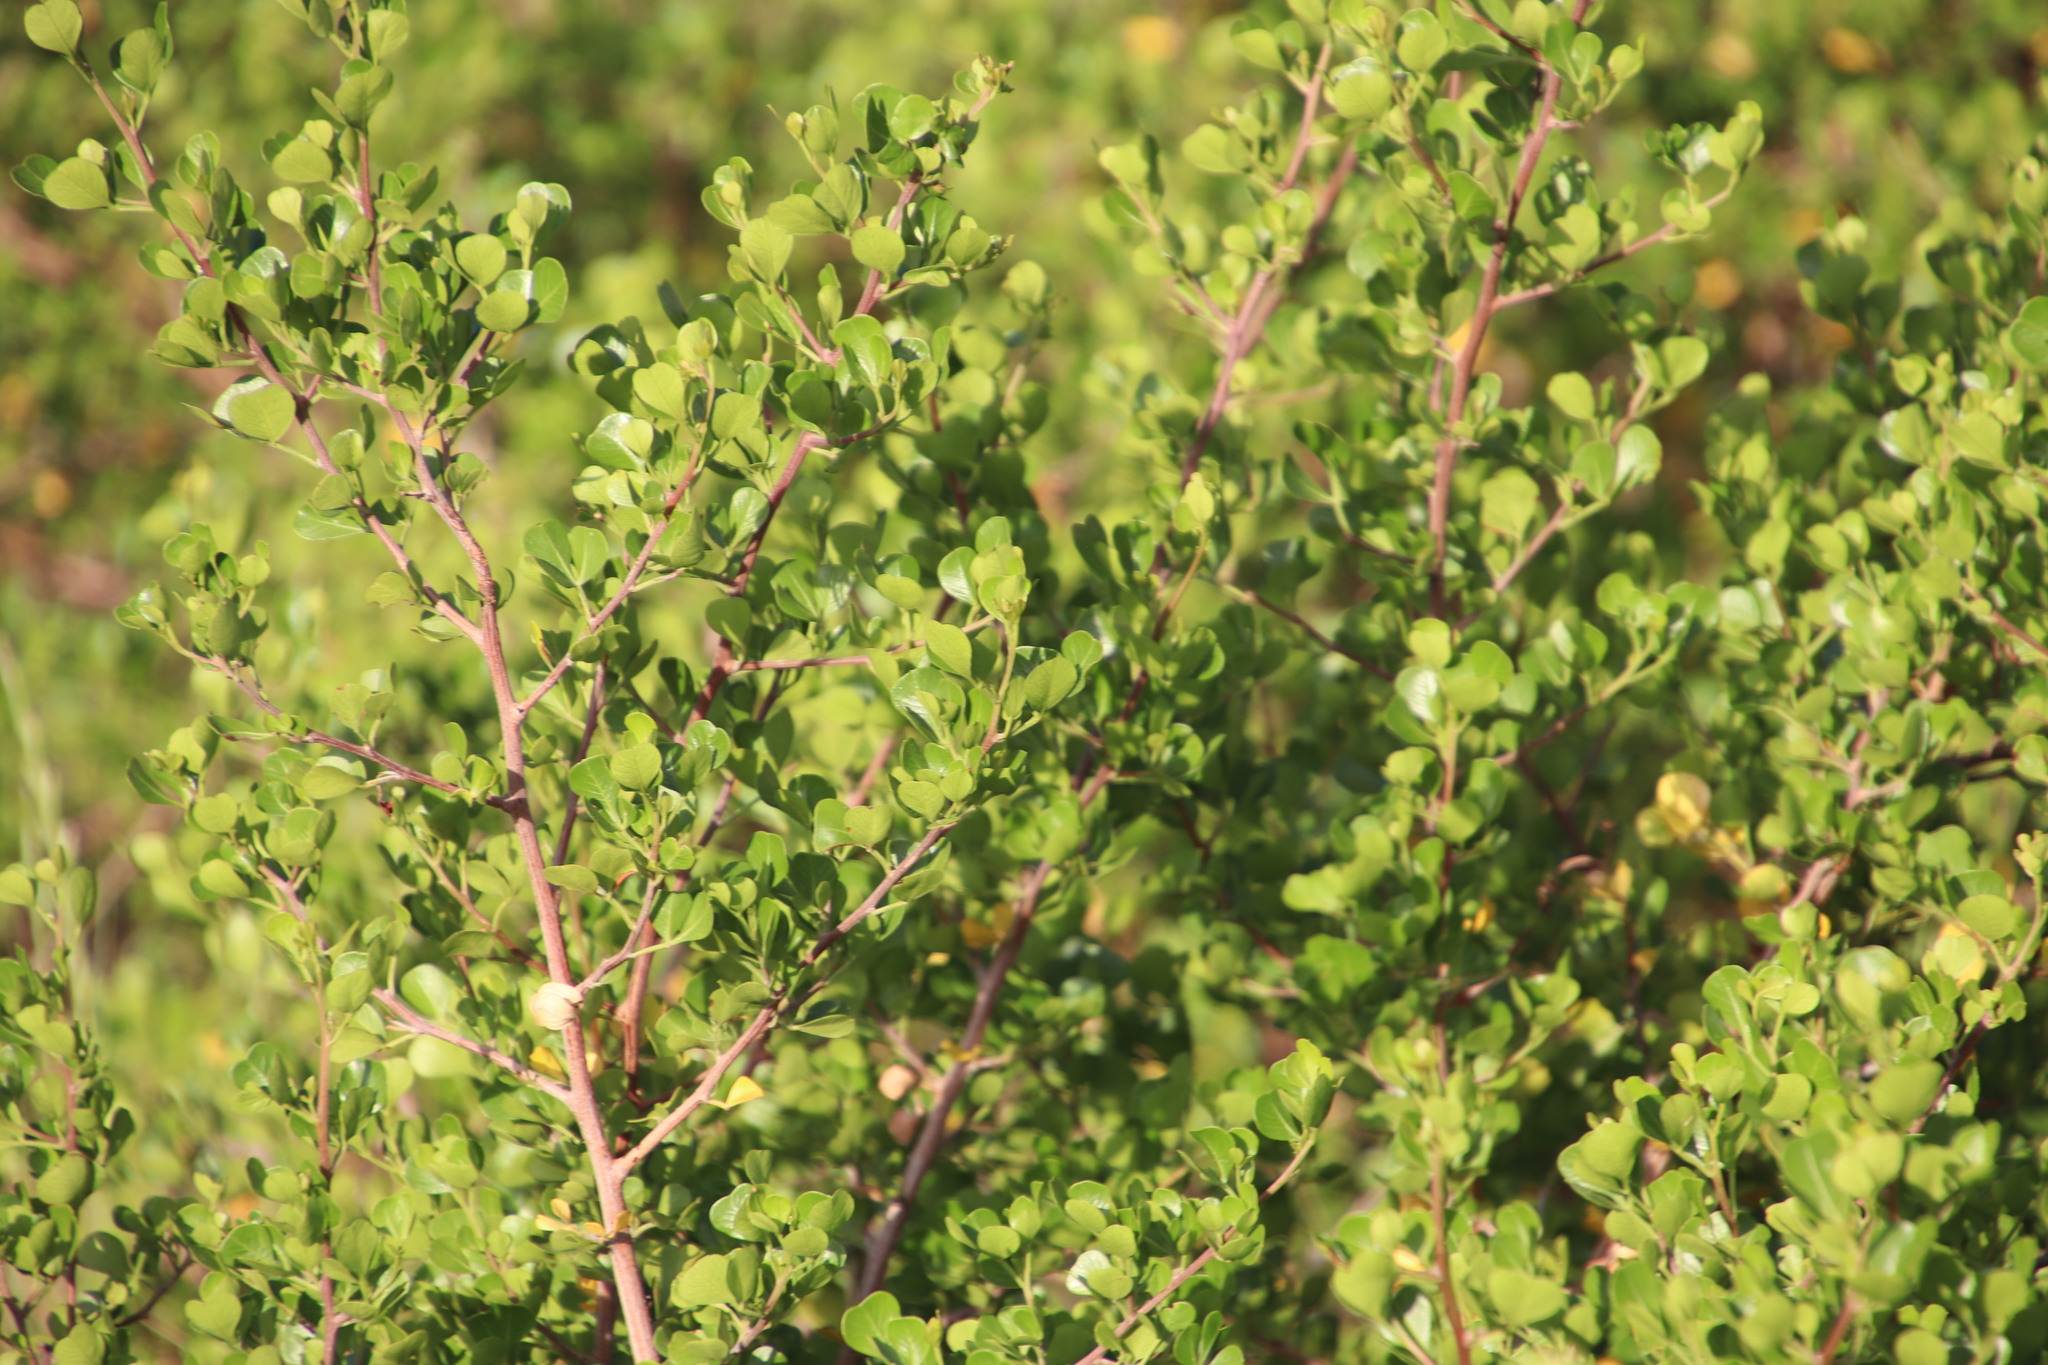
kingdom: Plantae
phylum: Tracheophyta
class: Magnoliopsida
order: Sapindales
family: Anacardiaceae
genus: Searsia
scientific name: Searsia glauca
